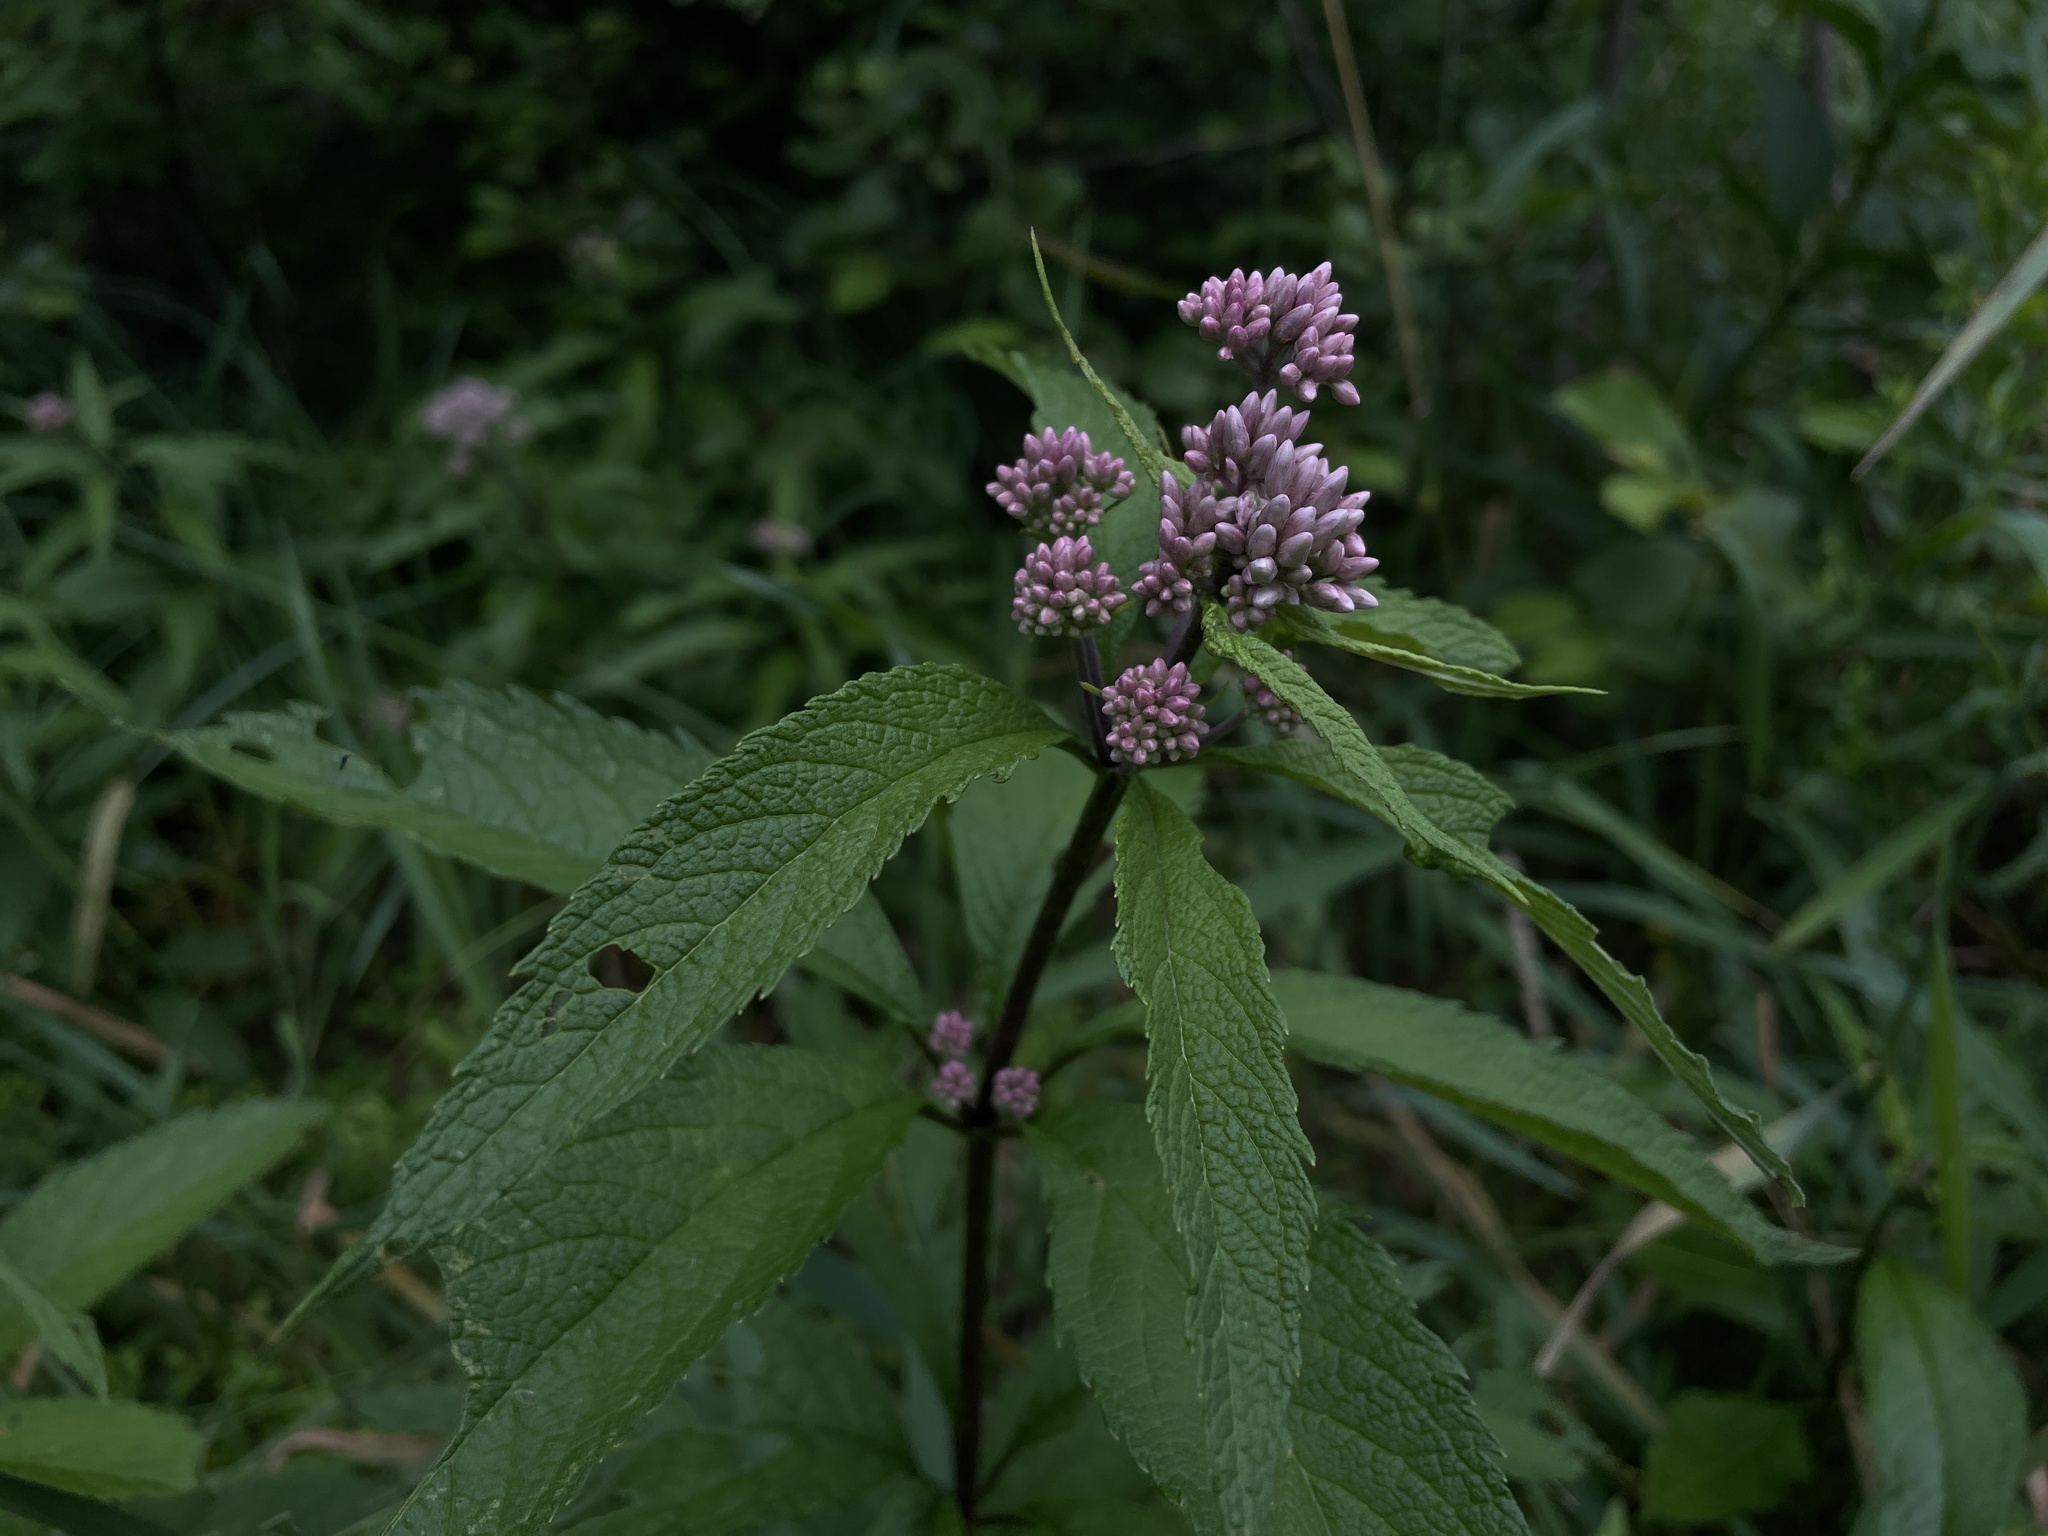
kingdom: Plantae
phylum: Tracheophyta
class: Magnoliopsida
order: Asterales
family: Asteraceae
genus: Eutrochium
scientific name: Eutrochium maculatum
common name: Spotted joe pye weed
